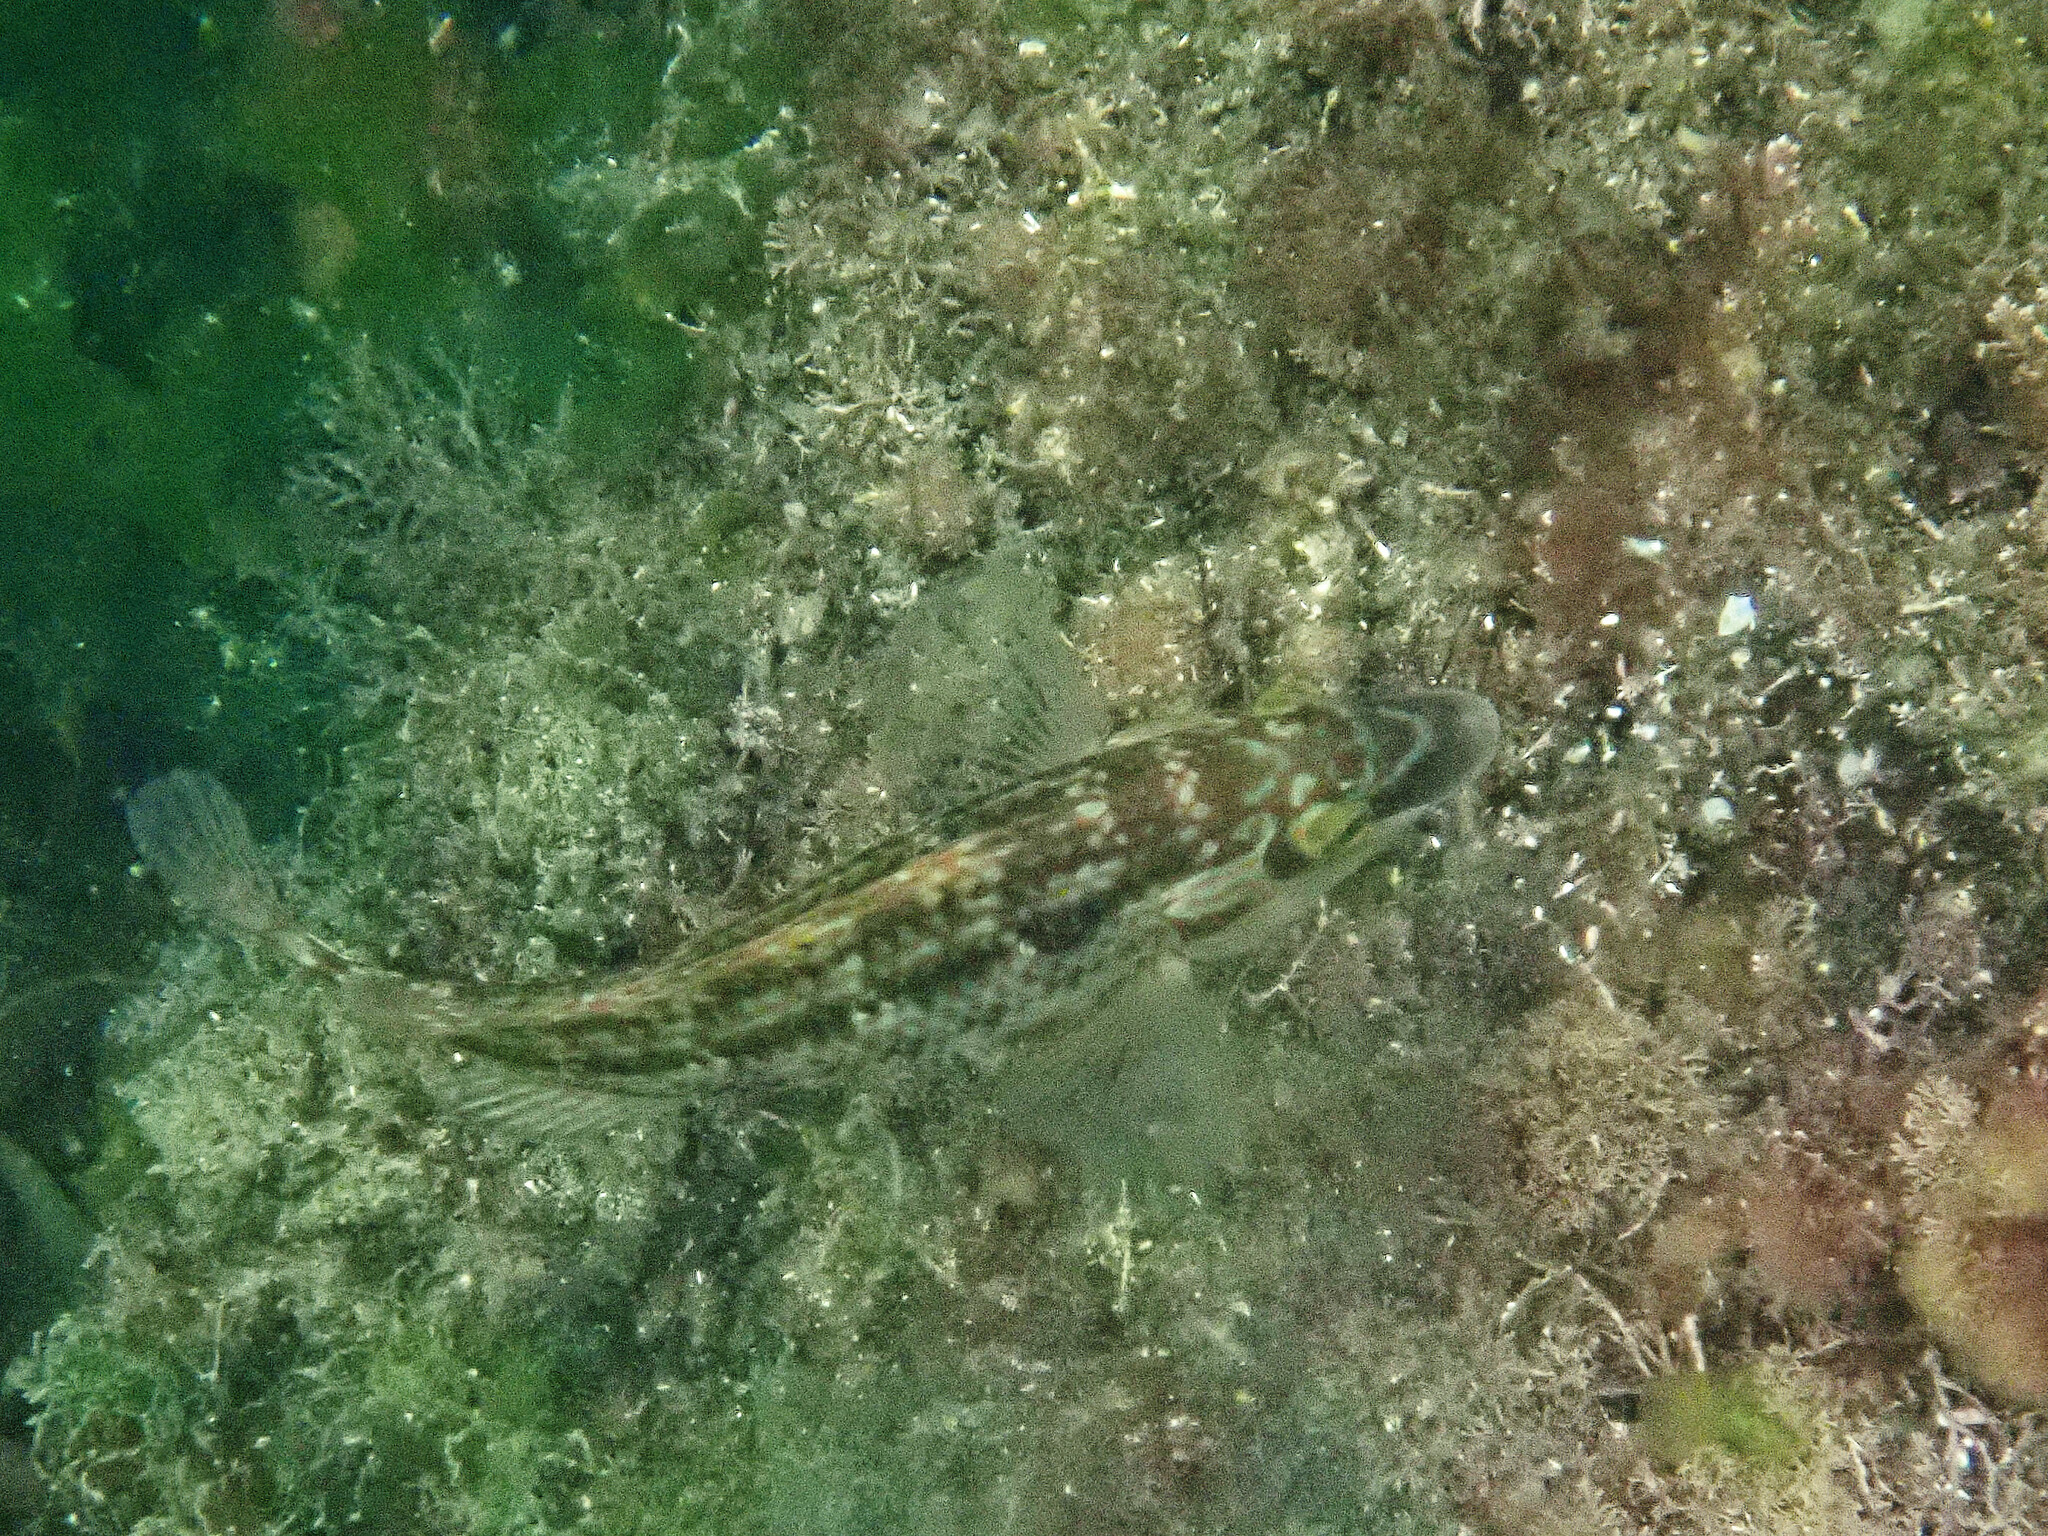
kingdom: Animalia
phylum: Chordata
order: Perciformes
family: Labridae
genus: Symphodus
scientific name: Symphodus melops
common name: Corkwing
